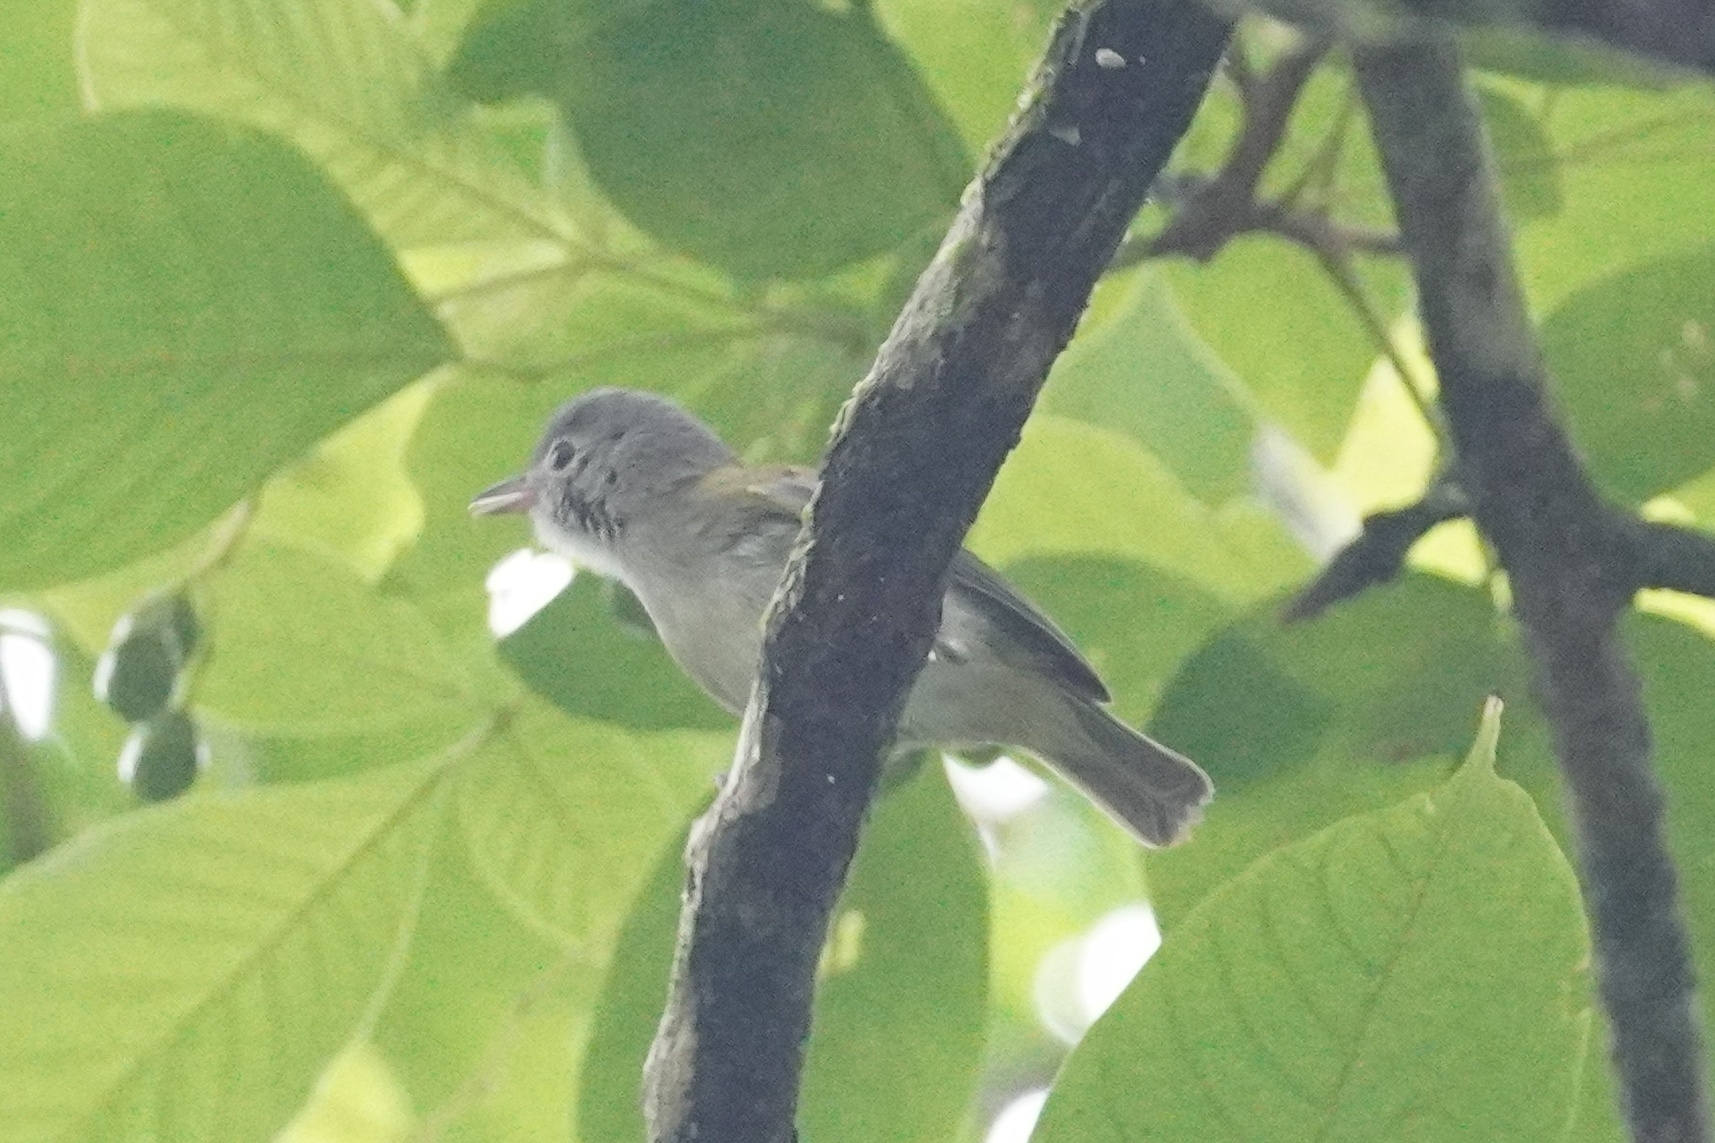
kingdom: Animalia
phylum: Chordata
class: Aves
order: Passeriformes
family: Vireonidae
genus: Hylophilus
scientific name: Hylophilus decurtatus
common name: Lesser greenlet
